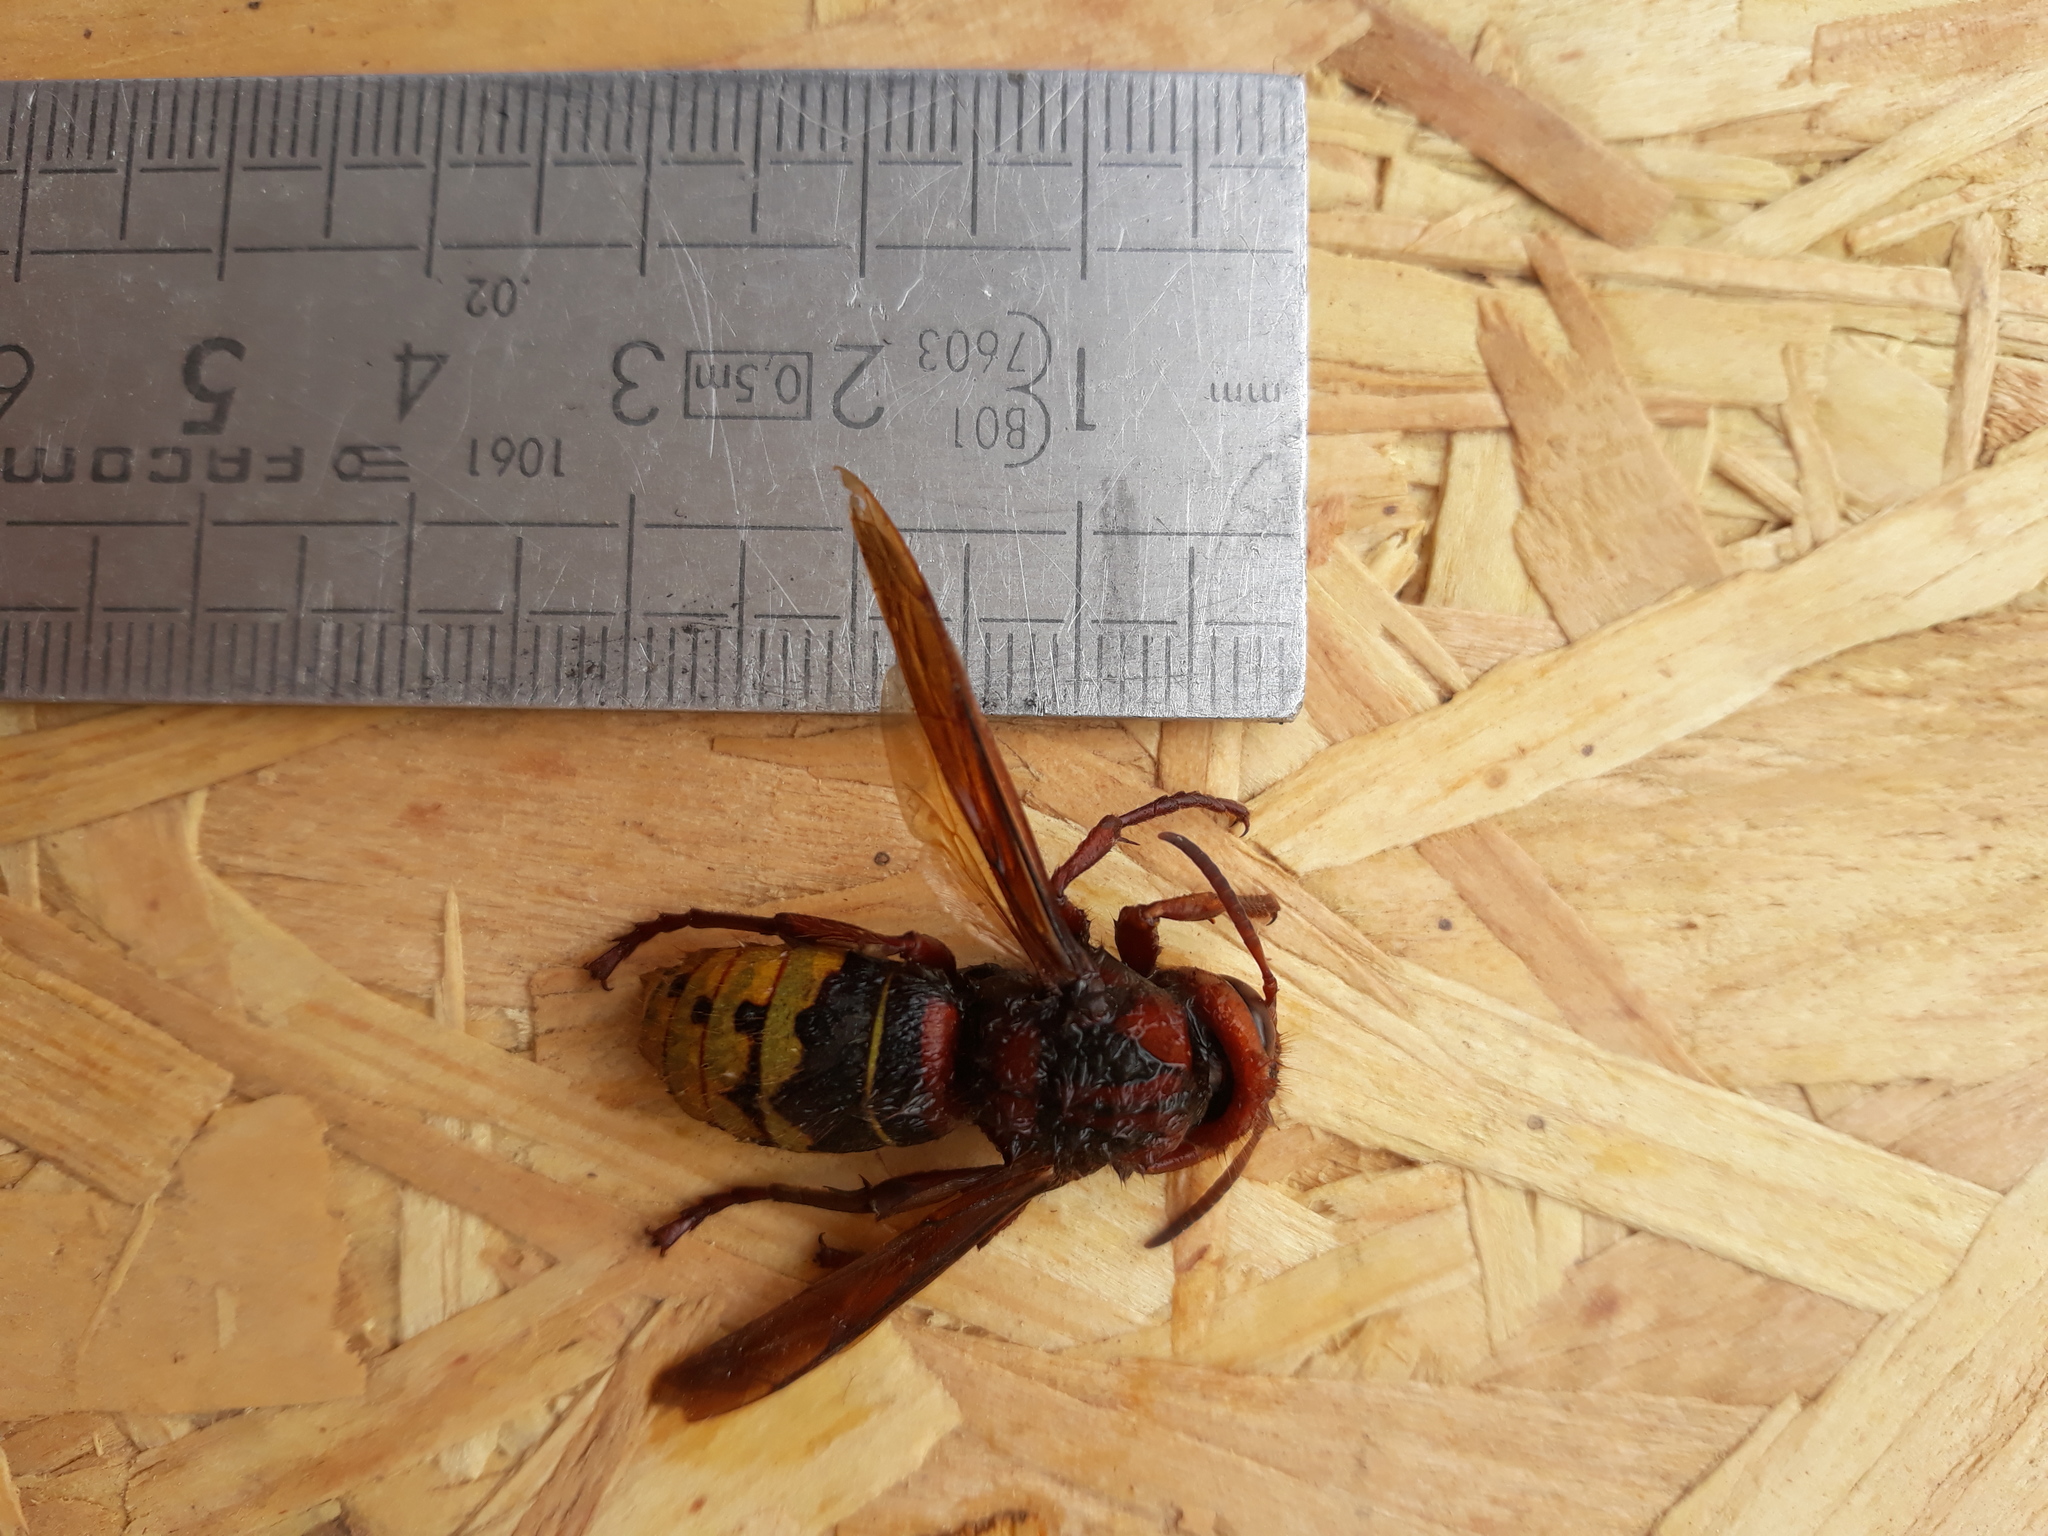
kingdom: Animalia
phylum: Arthropoda
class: Insecta
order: Hymenoptera
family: Vespidae
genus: Vespa
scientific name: Vespa crabro
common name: Hornet
